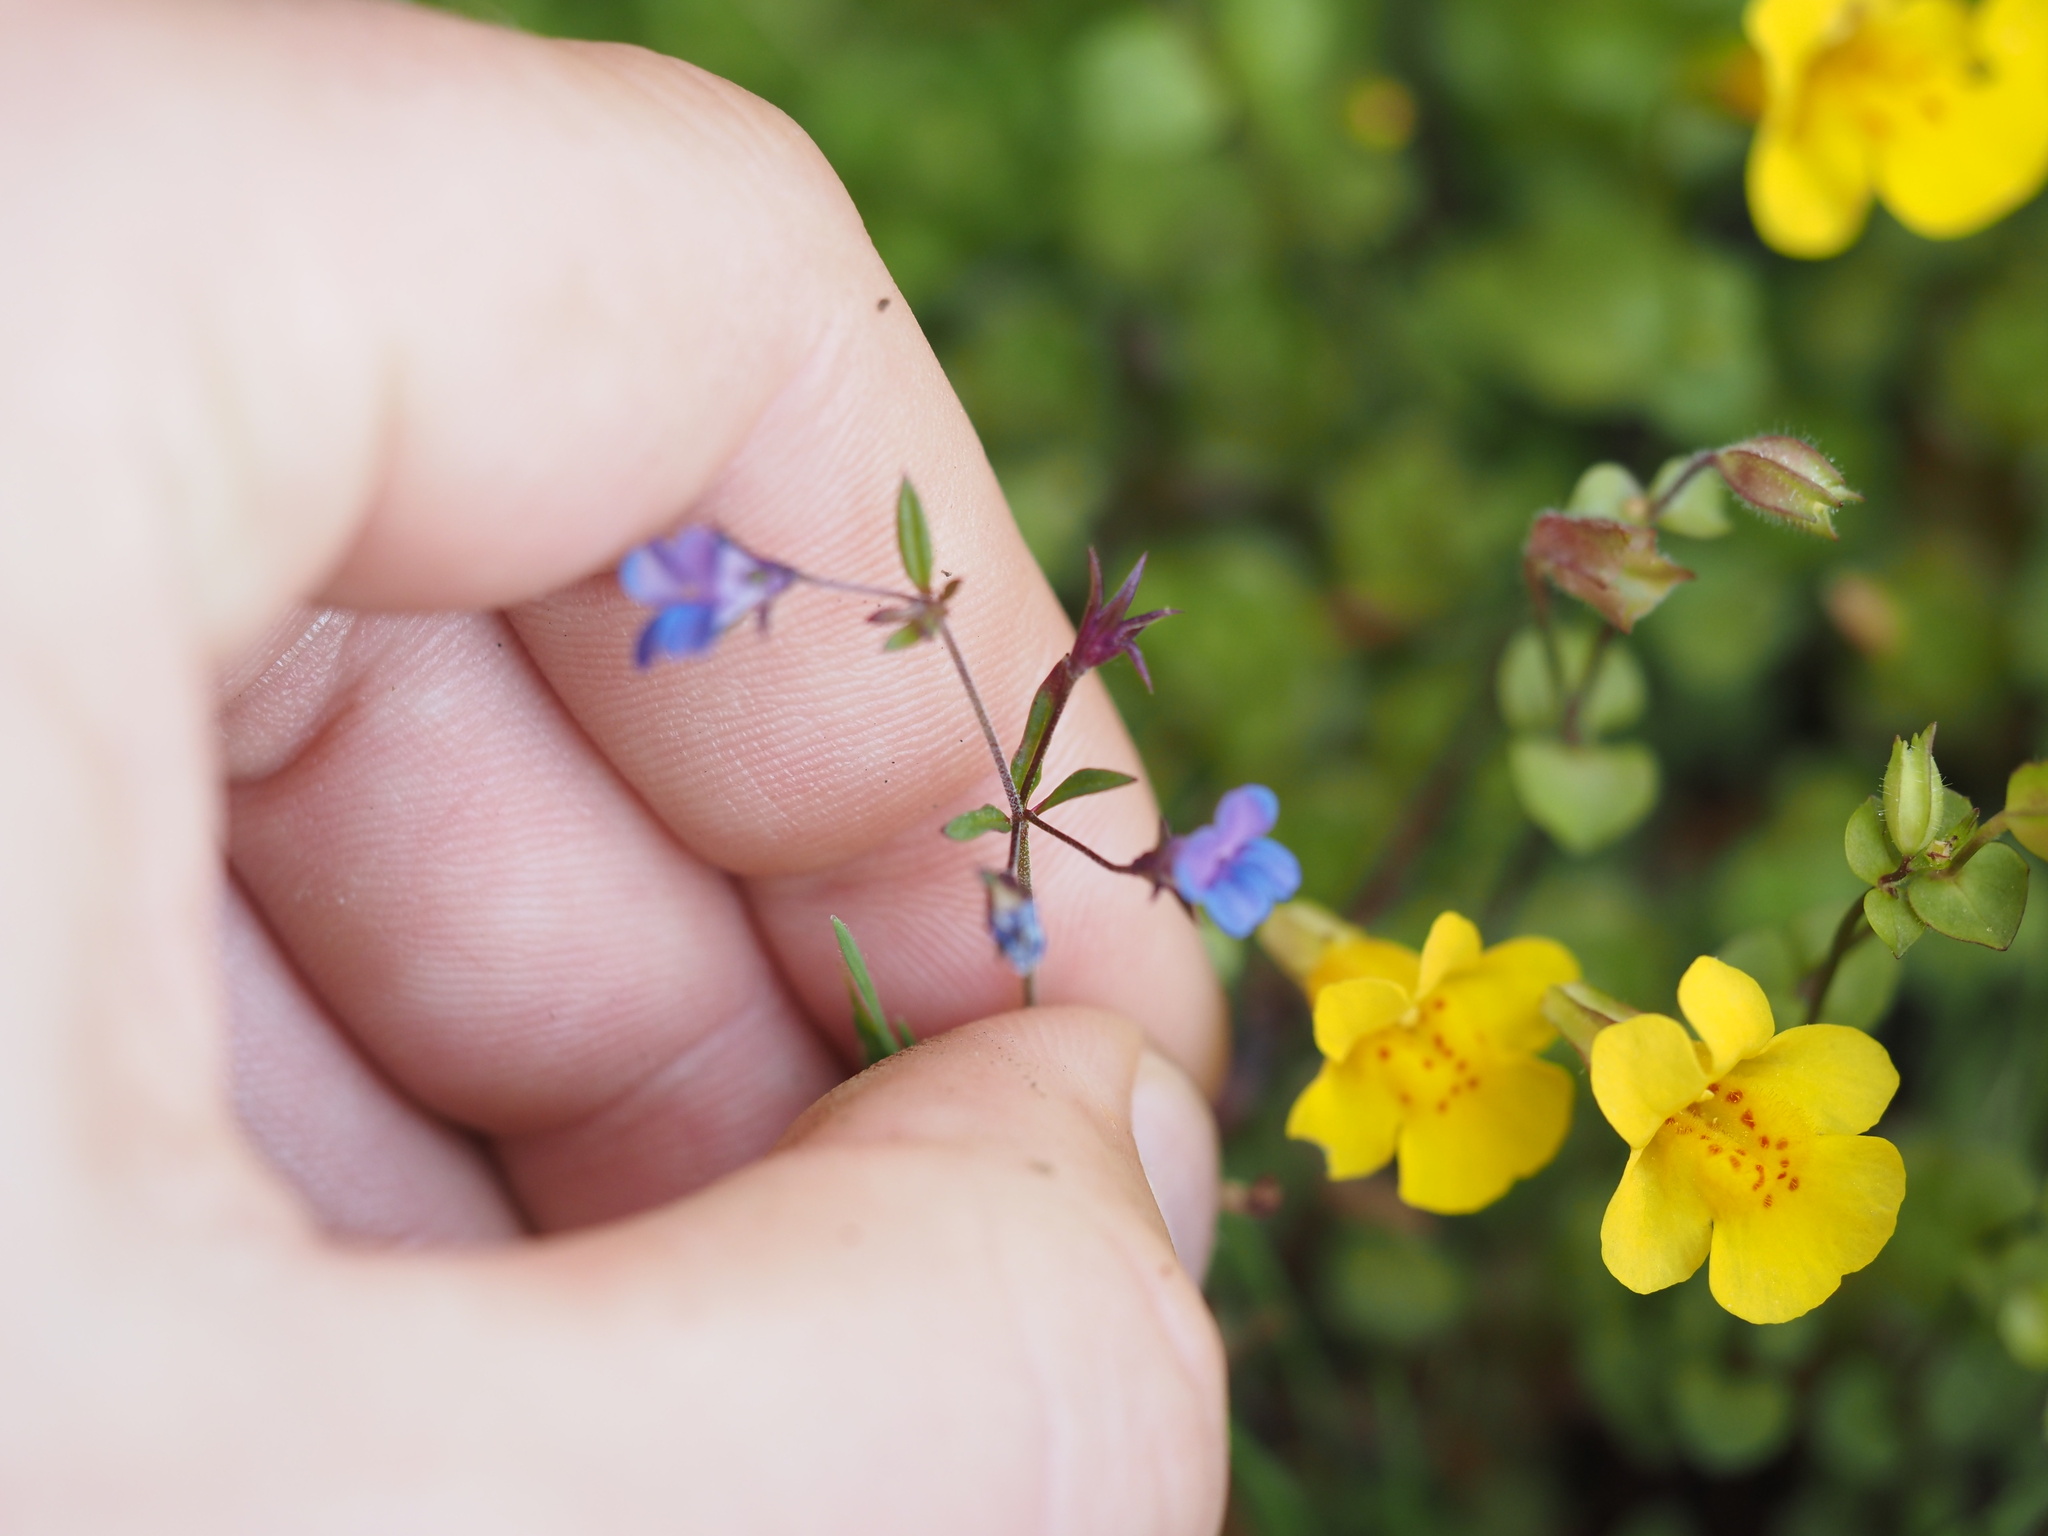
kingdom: Plantae
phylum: Tracheophyta
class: Magnoliopsida
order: Lamiales
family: Plantaginaceae
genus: Collinsia
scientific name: Collinsia parviflora
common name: Blue-lips
